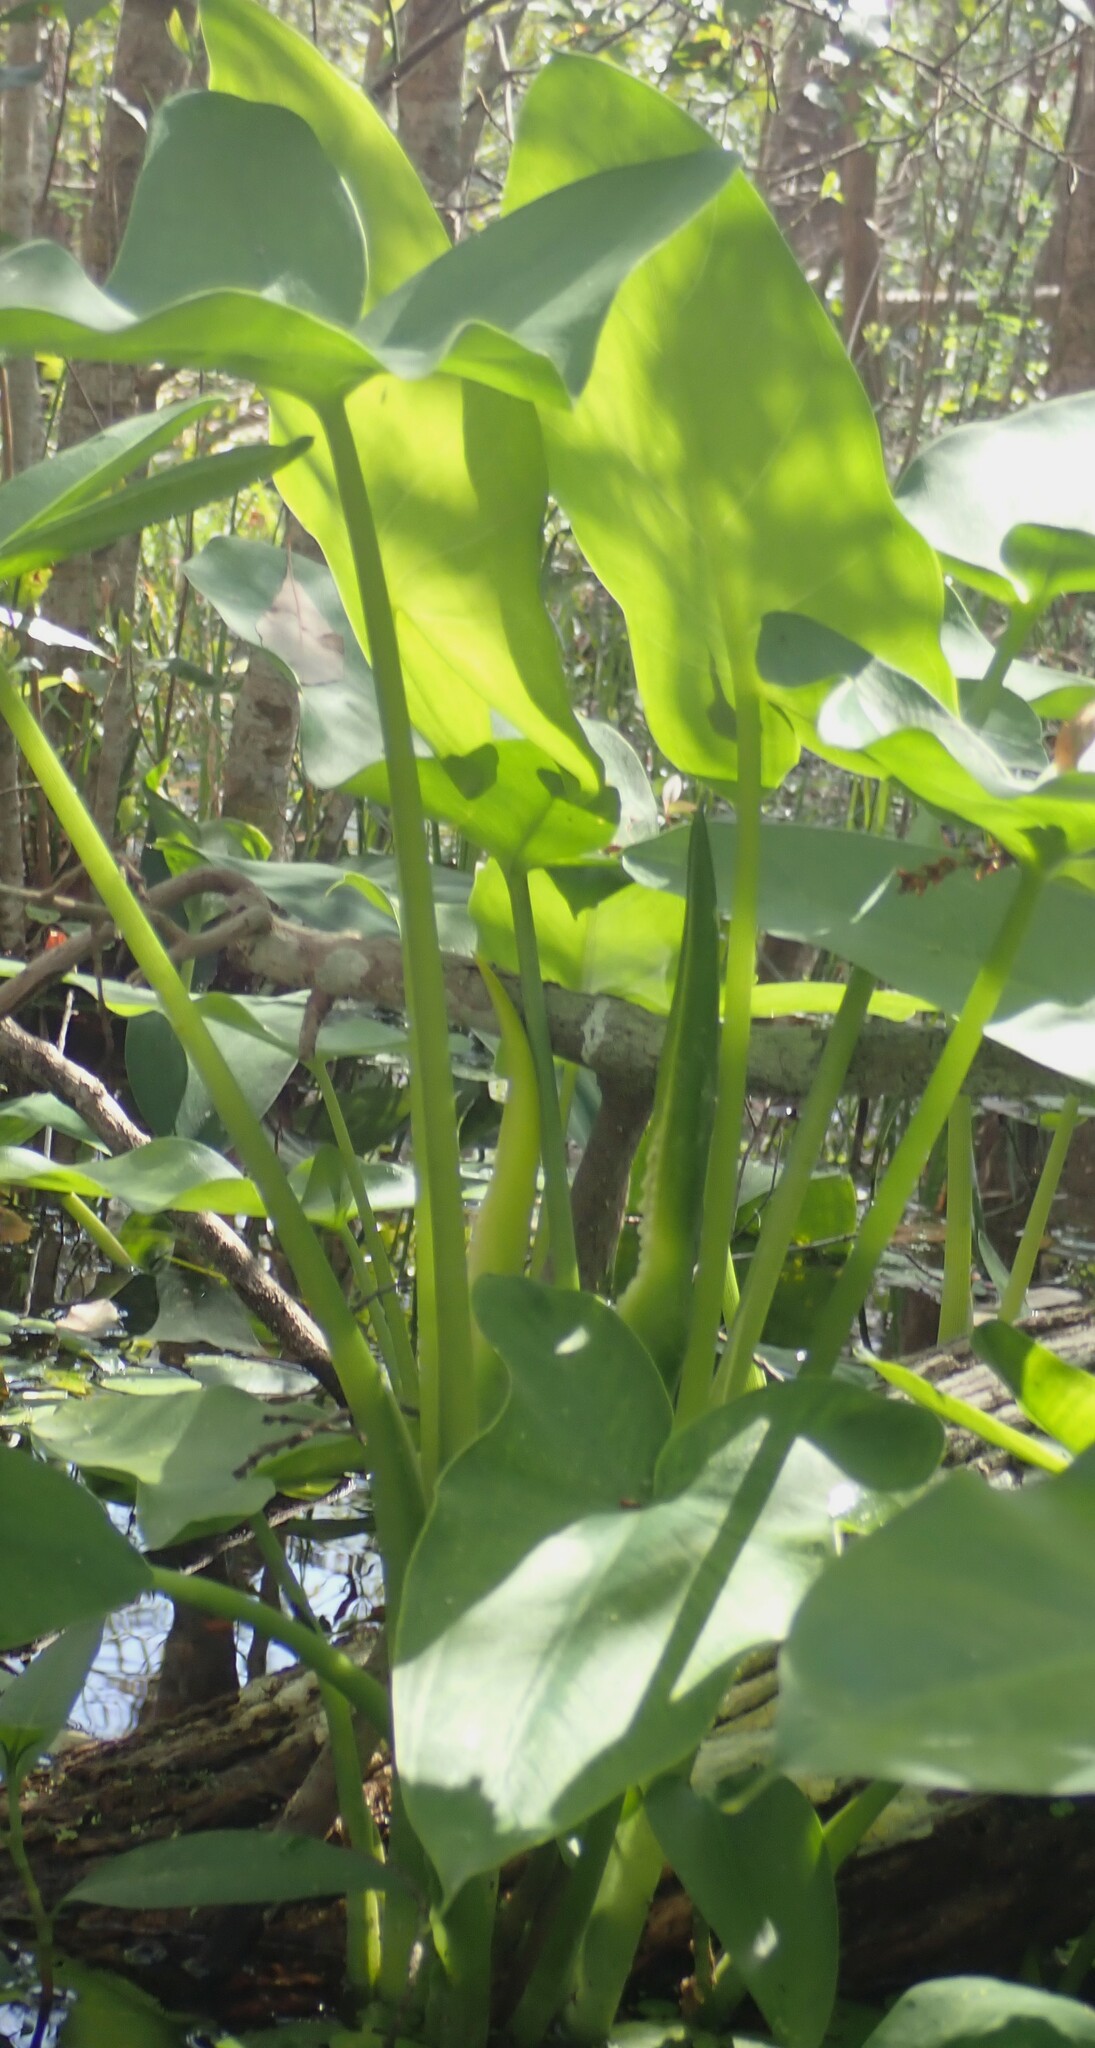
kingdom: Plantae
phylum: Tracheophyta
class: Liliopsida
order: Alismatales
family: Araceae
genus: Peltandra
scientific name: Peltandra virginica
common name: Arrow arum
